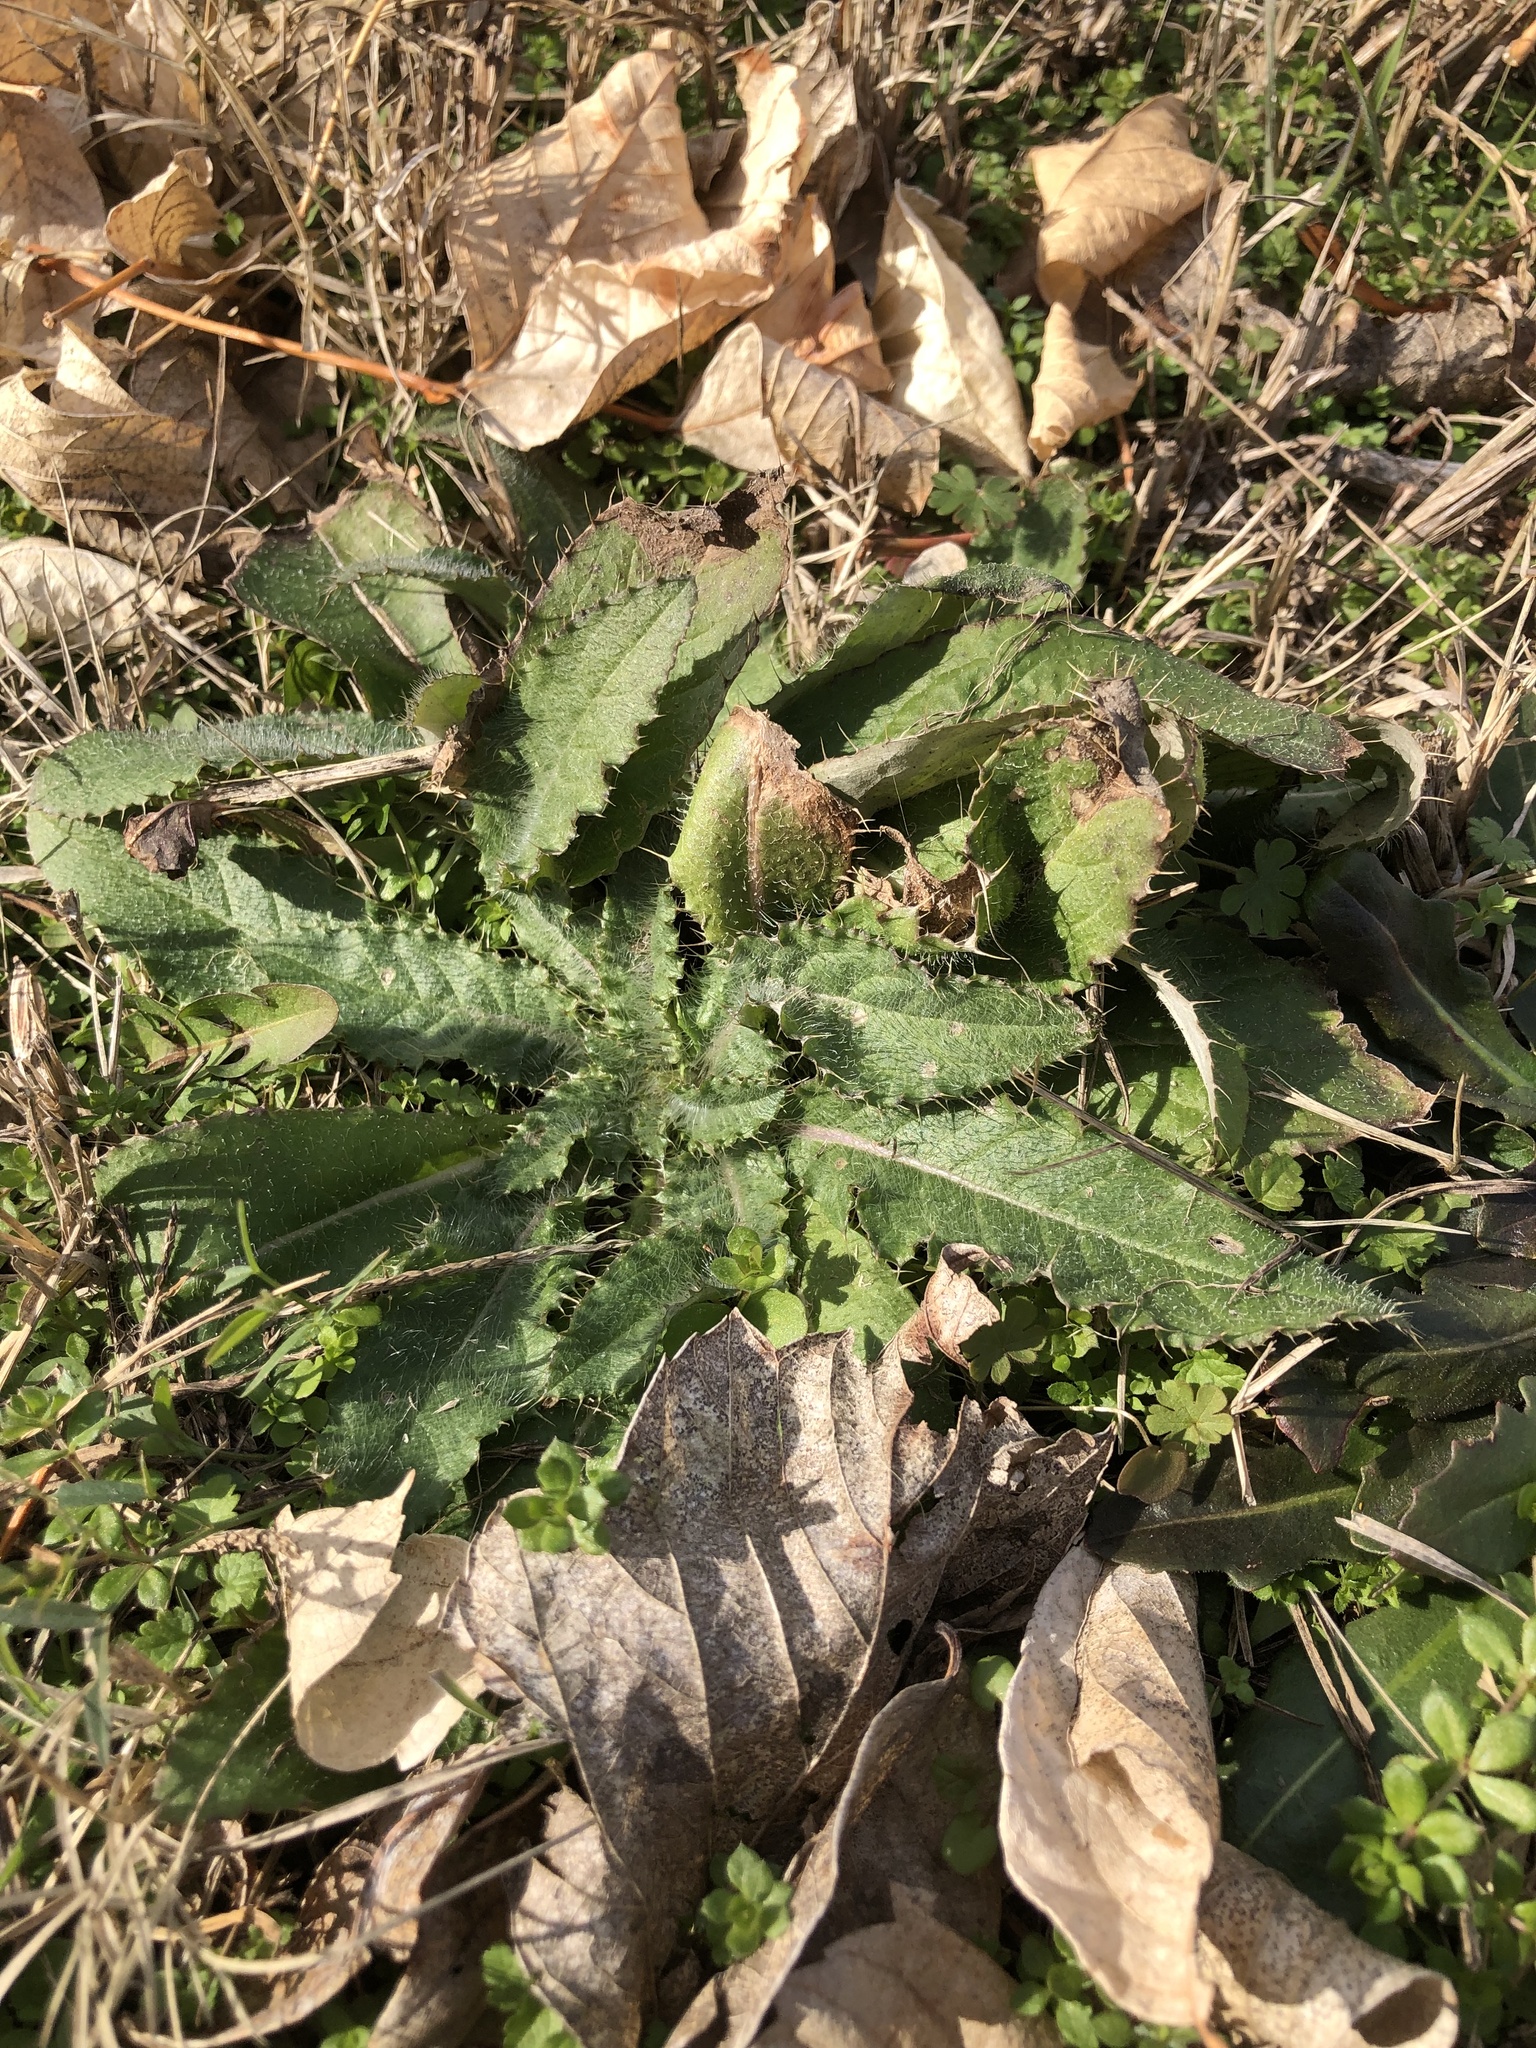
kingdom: Plantae
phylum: Tracheophyta
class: Magnoliopsida
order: Asterales
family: Asteraceae
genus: Cirsium
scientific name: Cirsium vulgare
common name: Bull thistle
